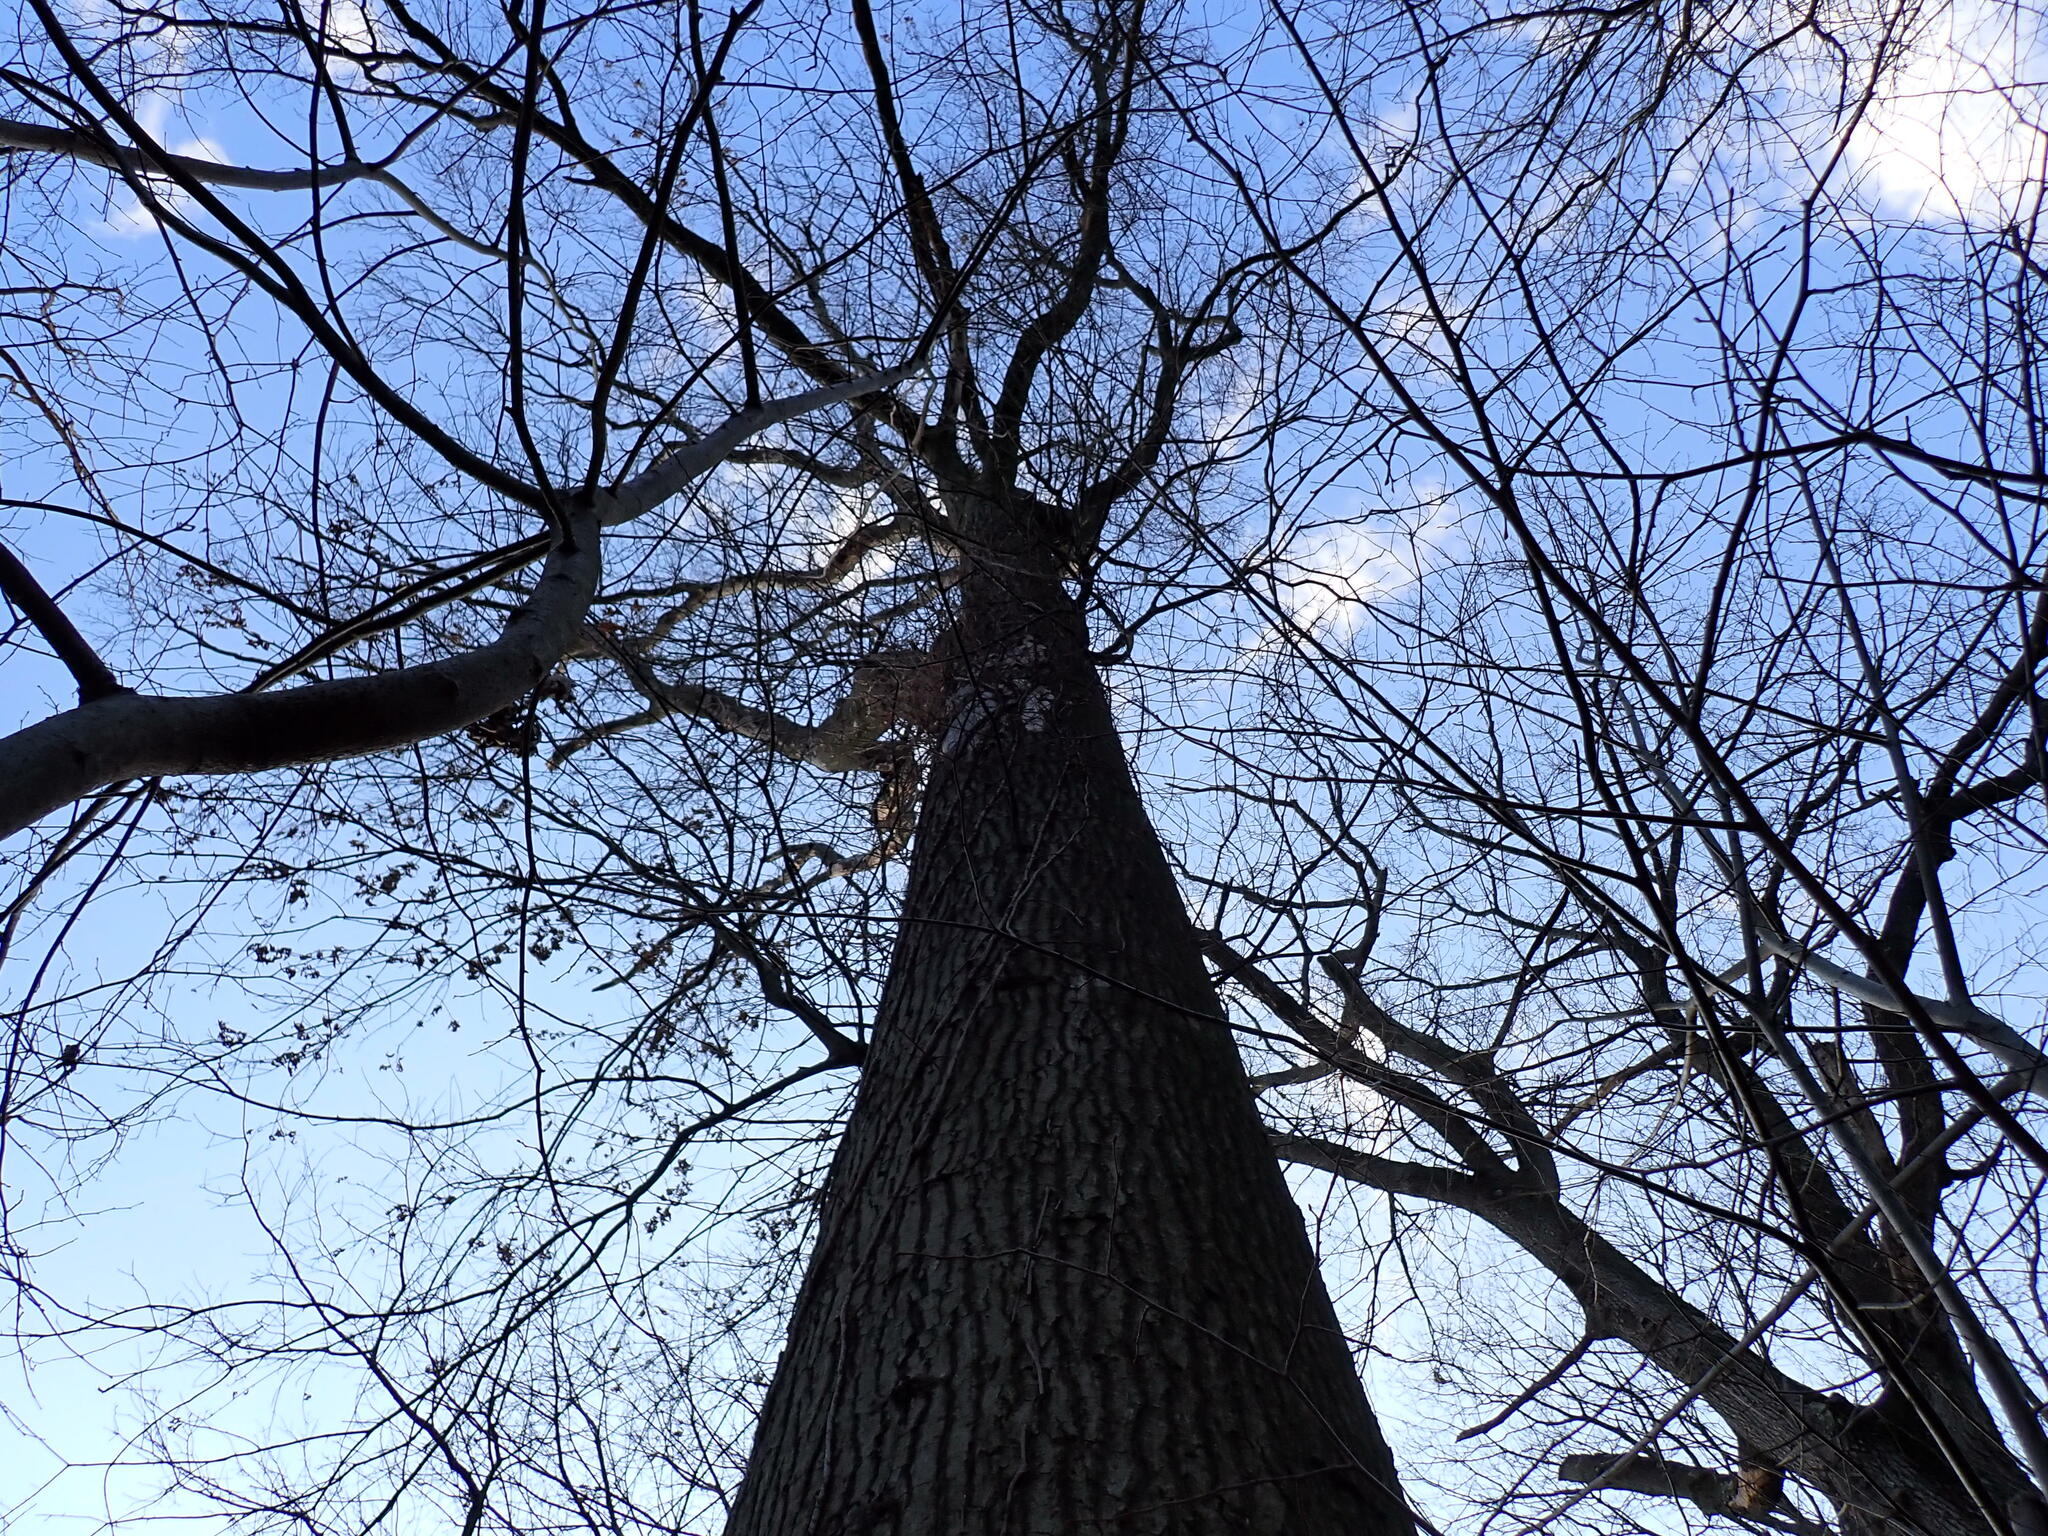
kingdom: Fungi
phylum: Ascomycota
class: Sordariomycetes
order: Xylariales
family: Graphostromataceae
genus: Biscogniauxia
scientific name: Biscogniauxia atropunctata
